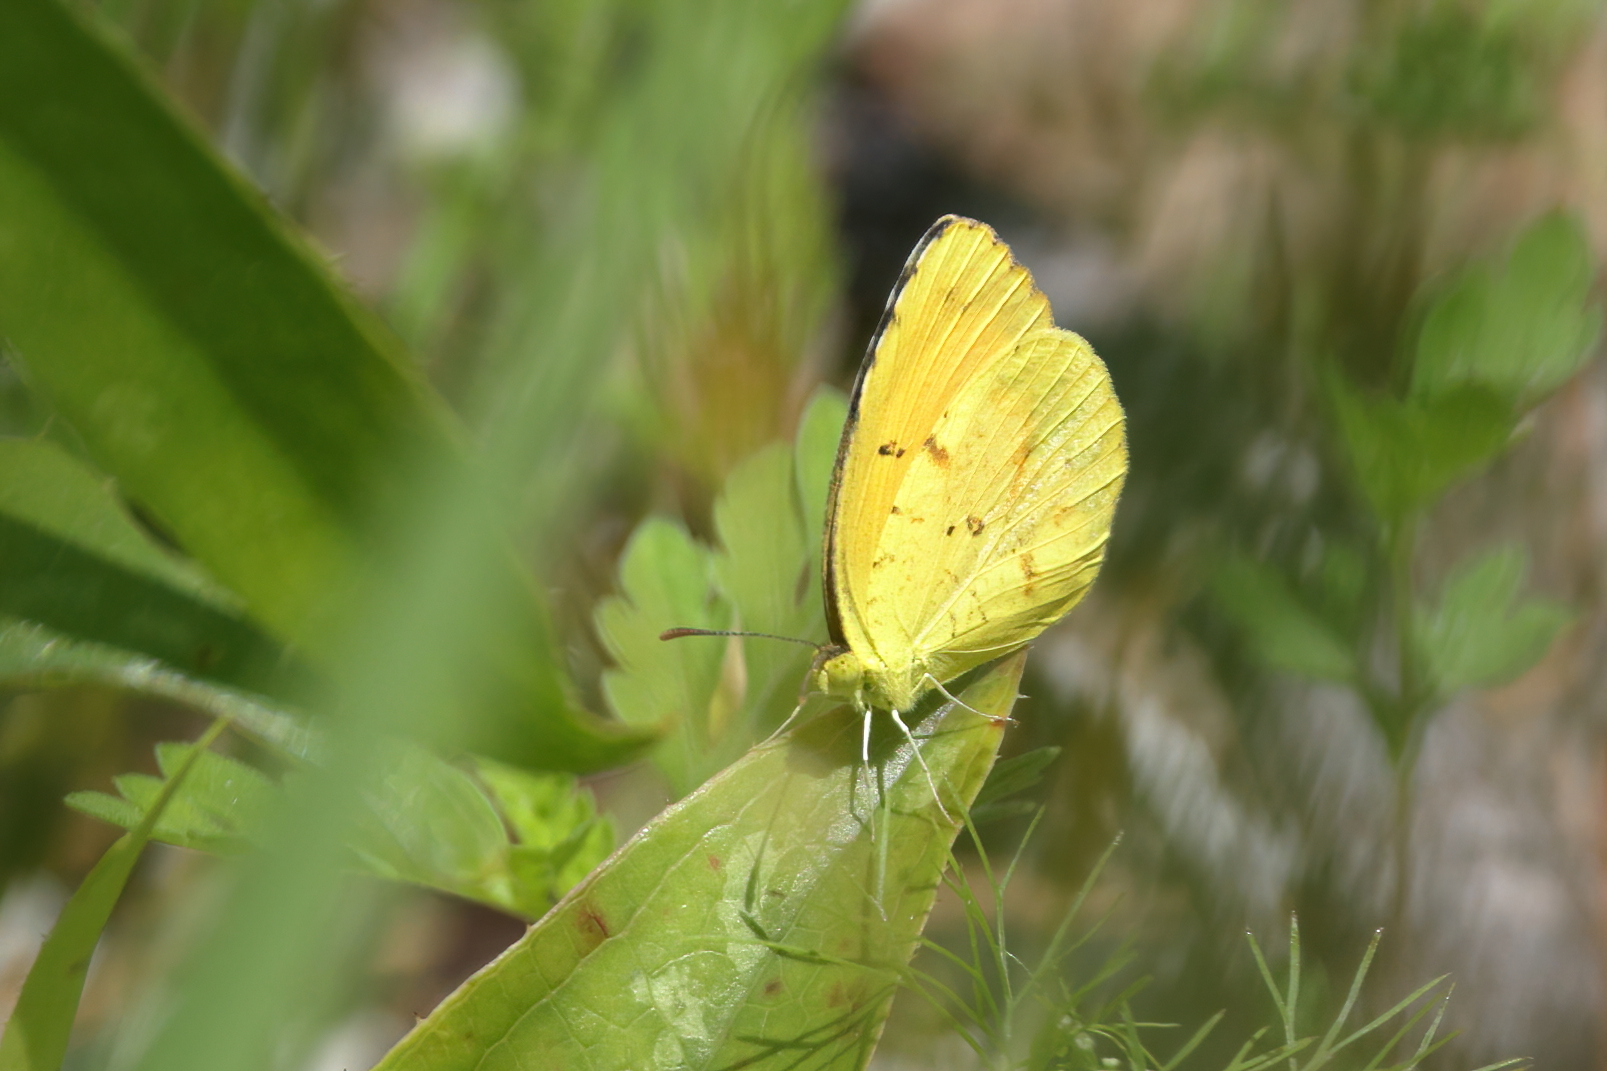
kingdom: Animalia
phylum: Arthropoda
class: Insecta
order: Lepidoptera
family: Pieridae
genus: Abaeis
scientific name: Abaeis nicippe
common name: Sleepy orange
